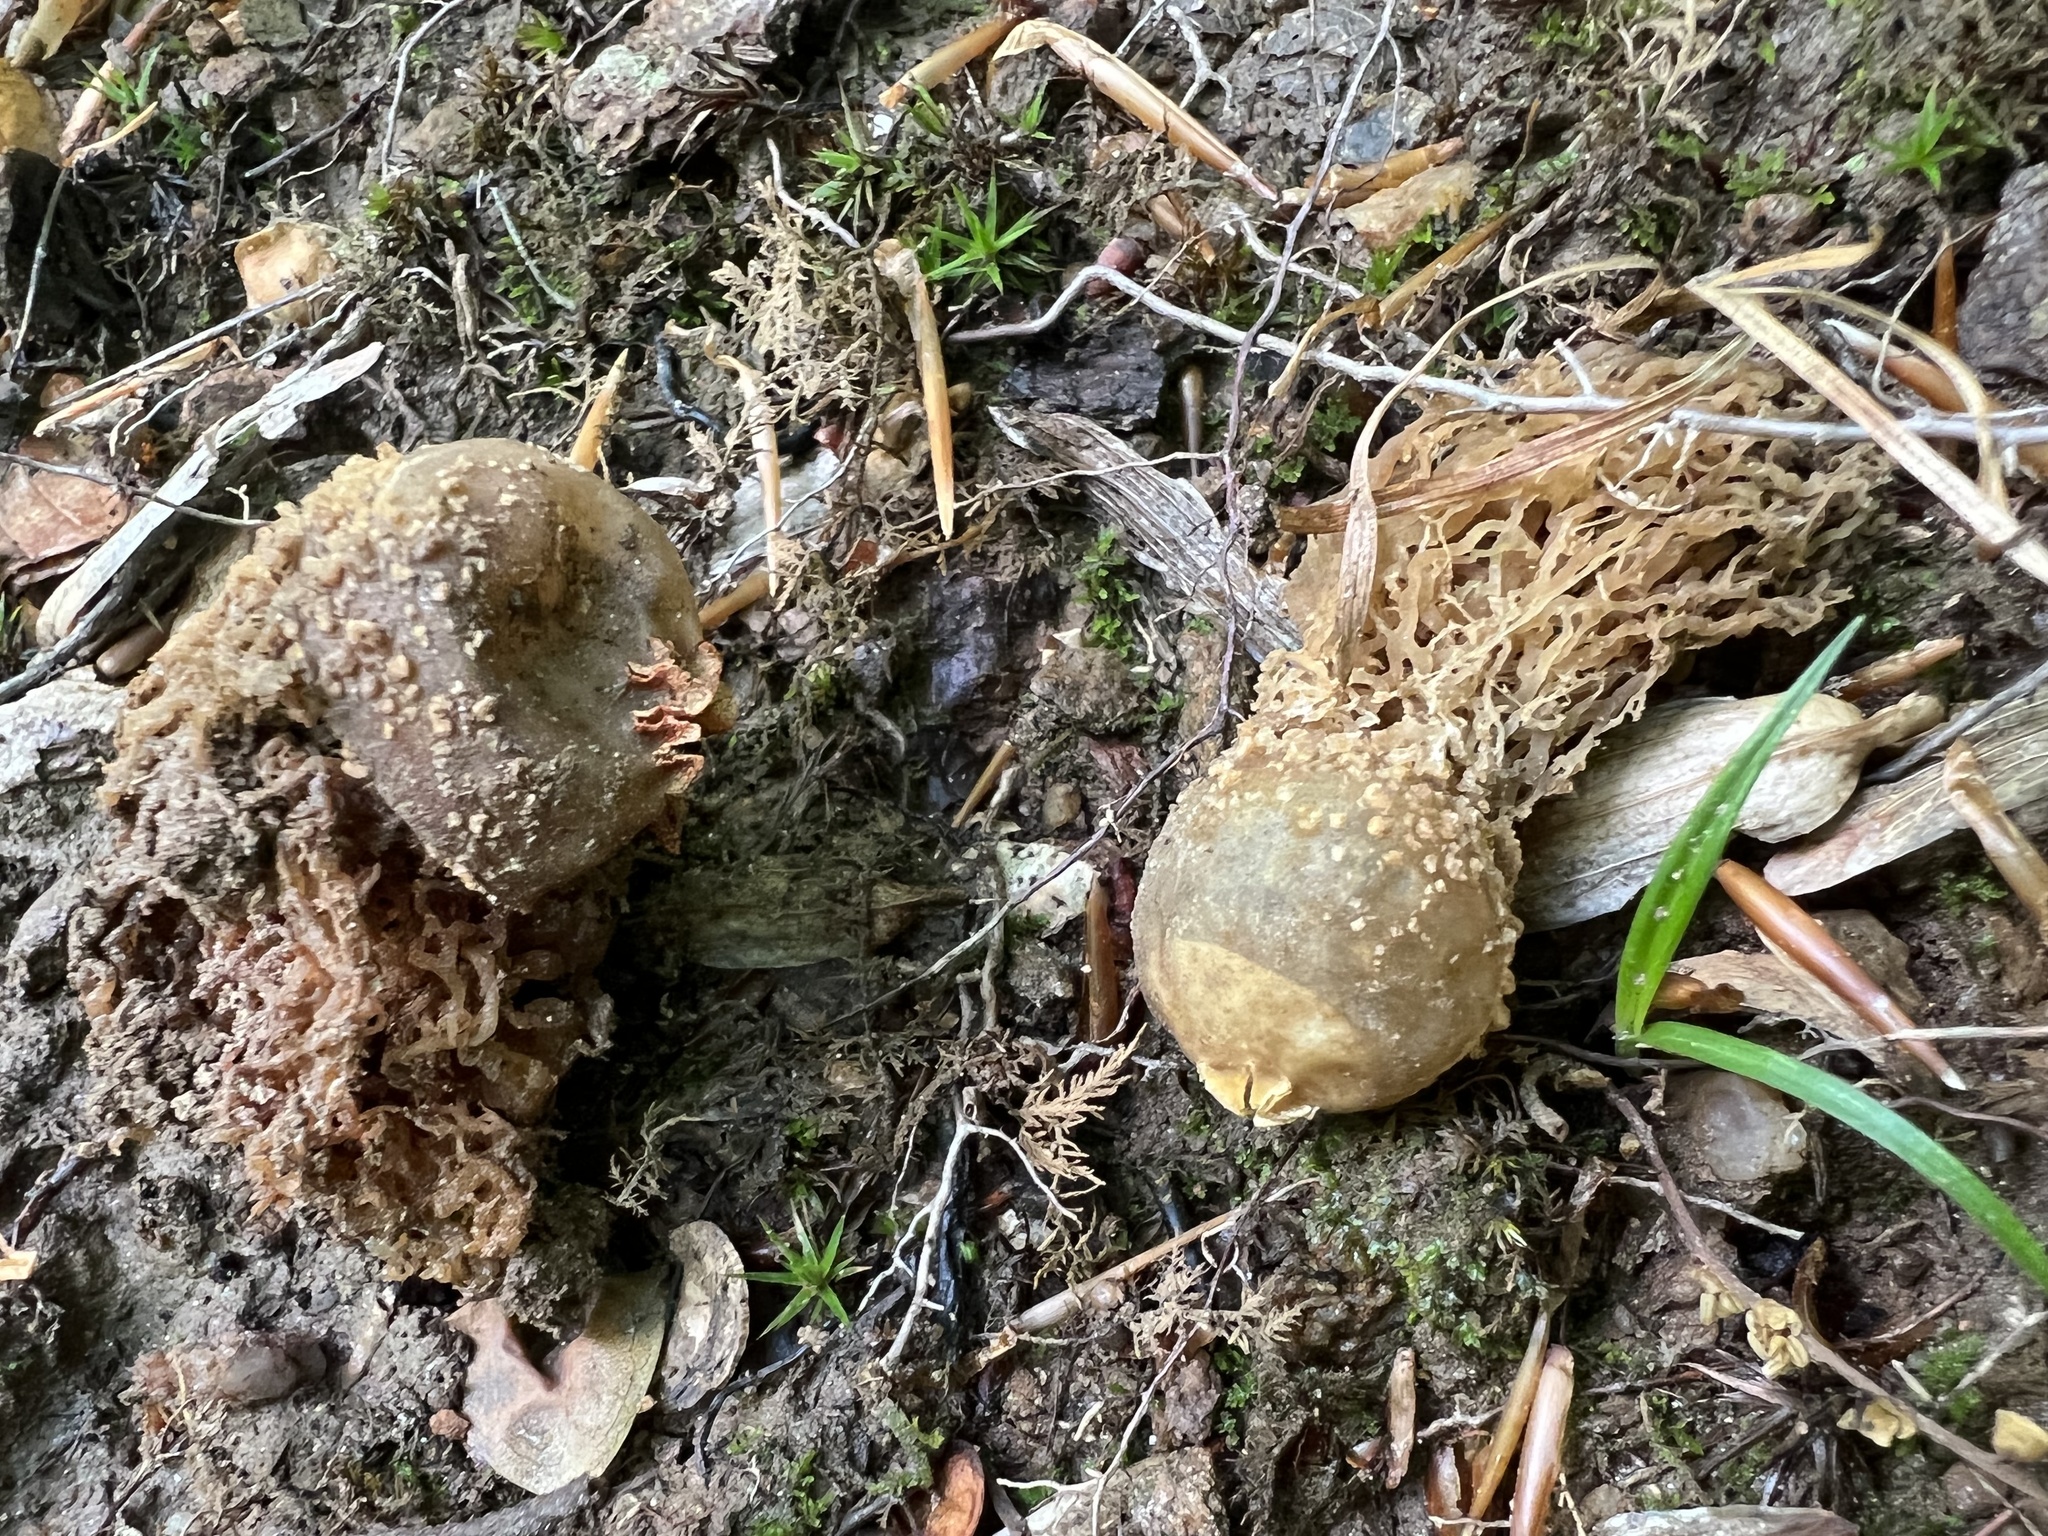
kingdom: Fungi
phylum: Basidiomycota
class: Agaricomycetes
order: Boletales
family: Calostomataceae
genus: Calostoma
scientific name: Calostoma ravenelii
